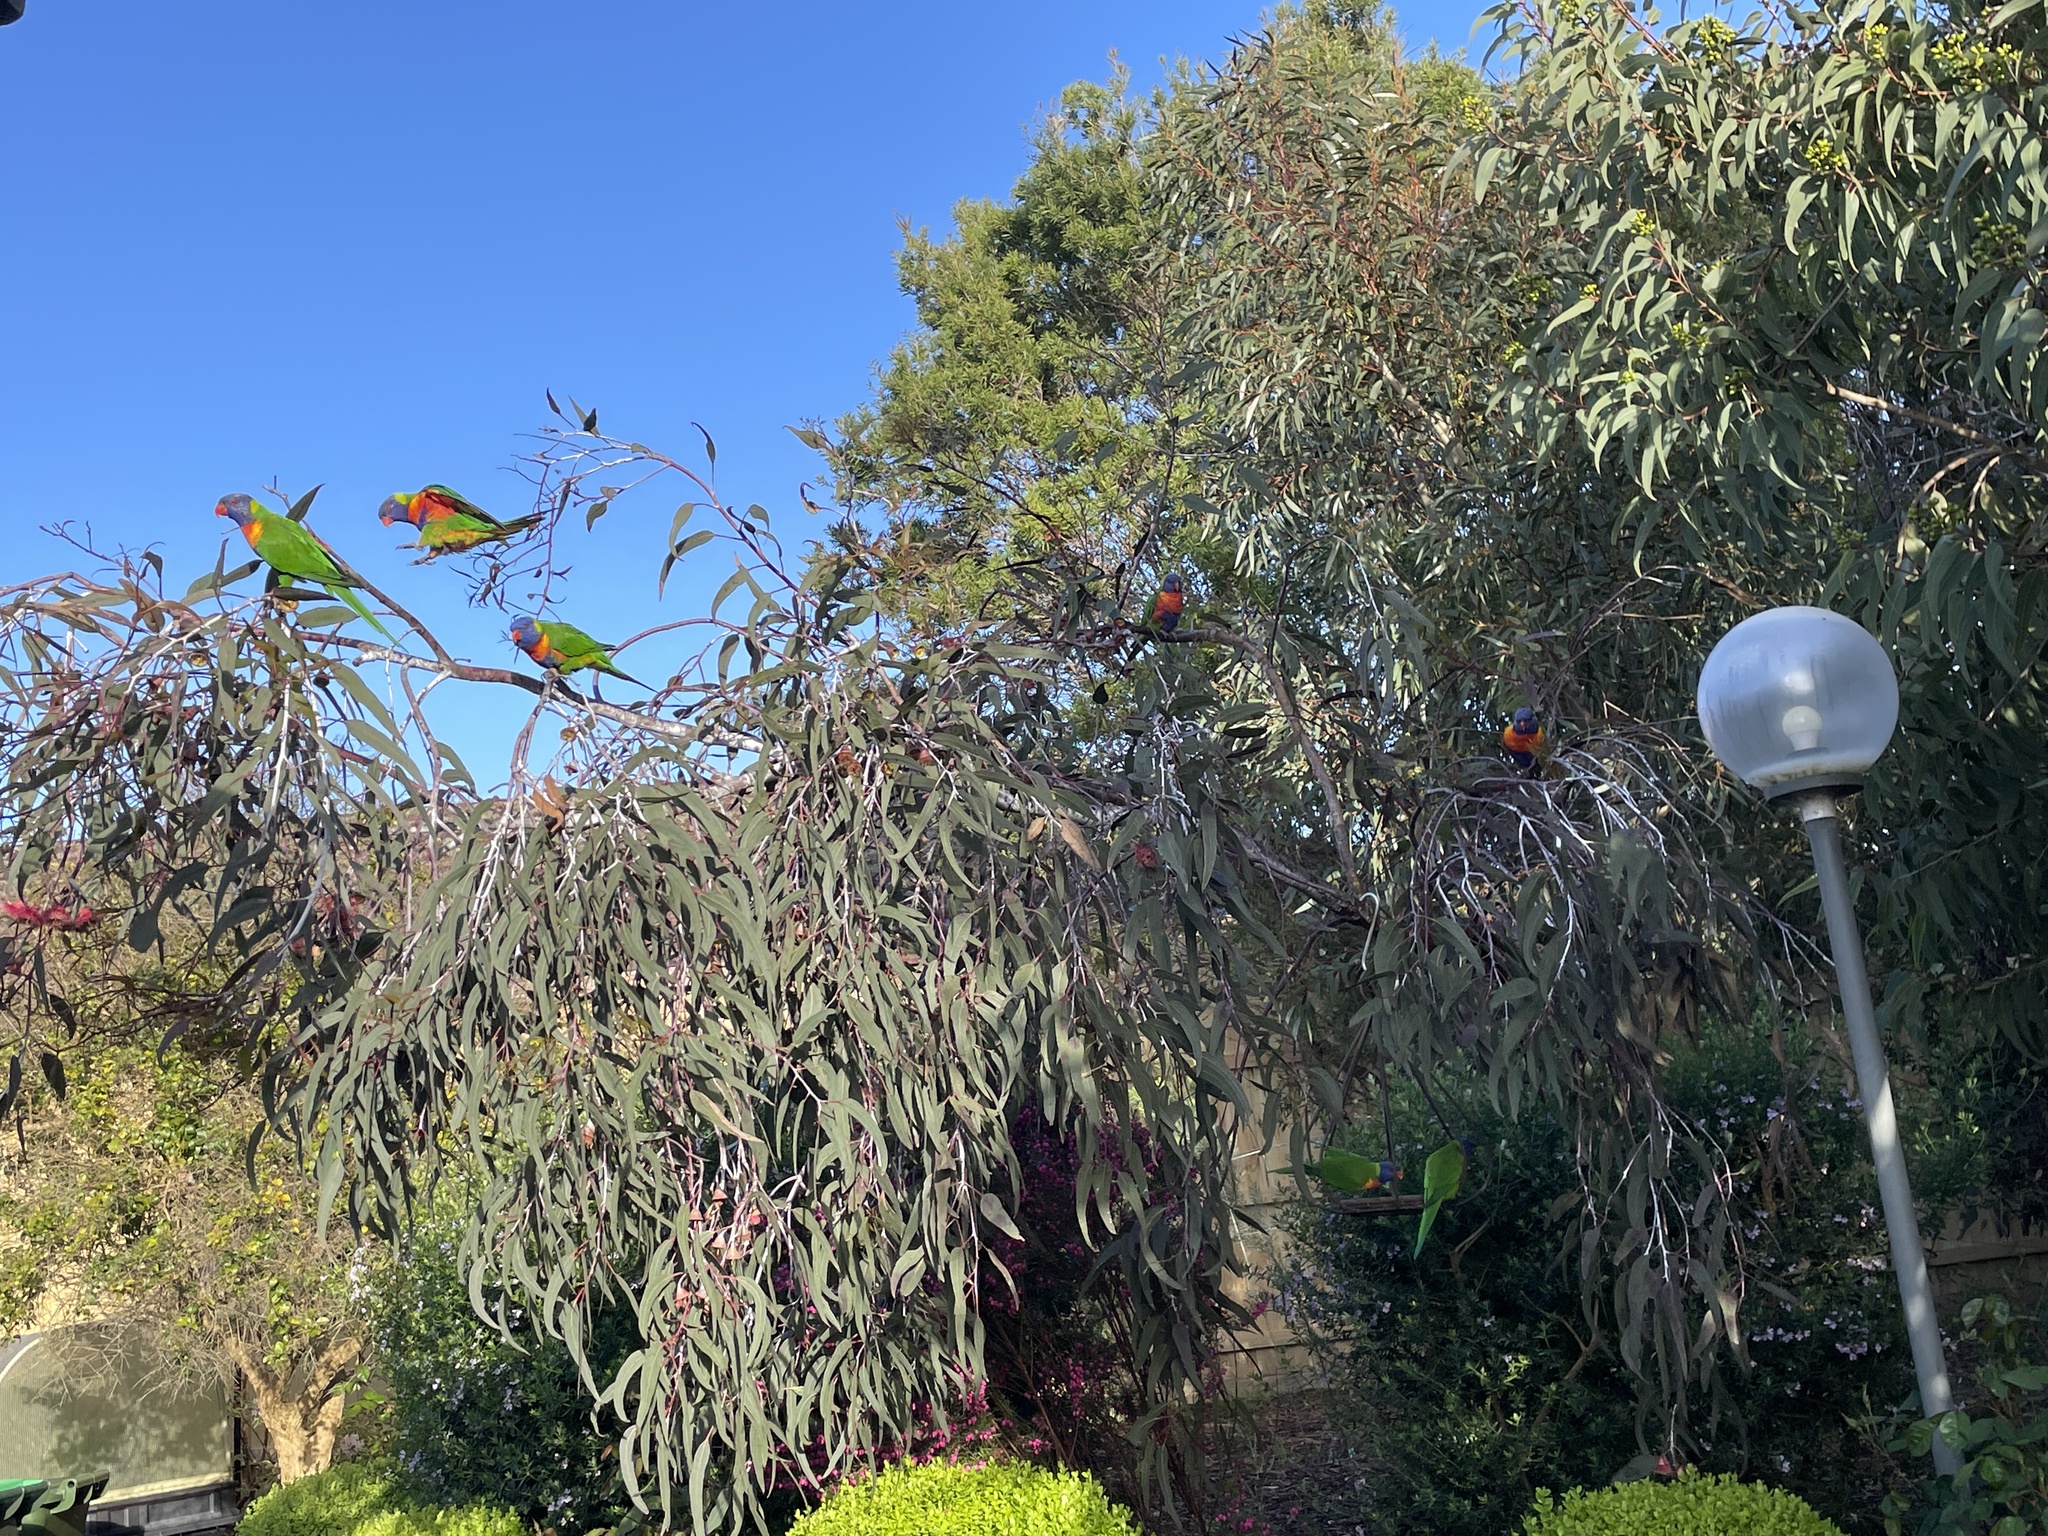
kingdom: Animalia
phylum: Chordata
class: Aves
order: Psittaciformes
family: Psittacidae
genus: Trichoglossus
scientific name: Trichoglossus haematodus
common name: Coconut lorikeet
